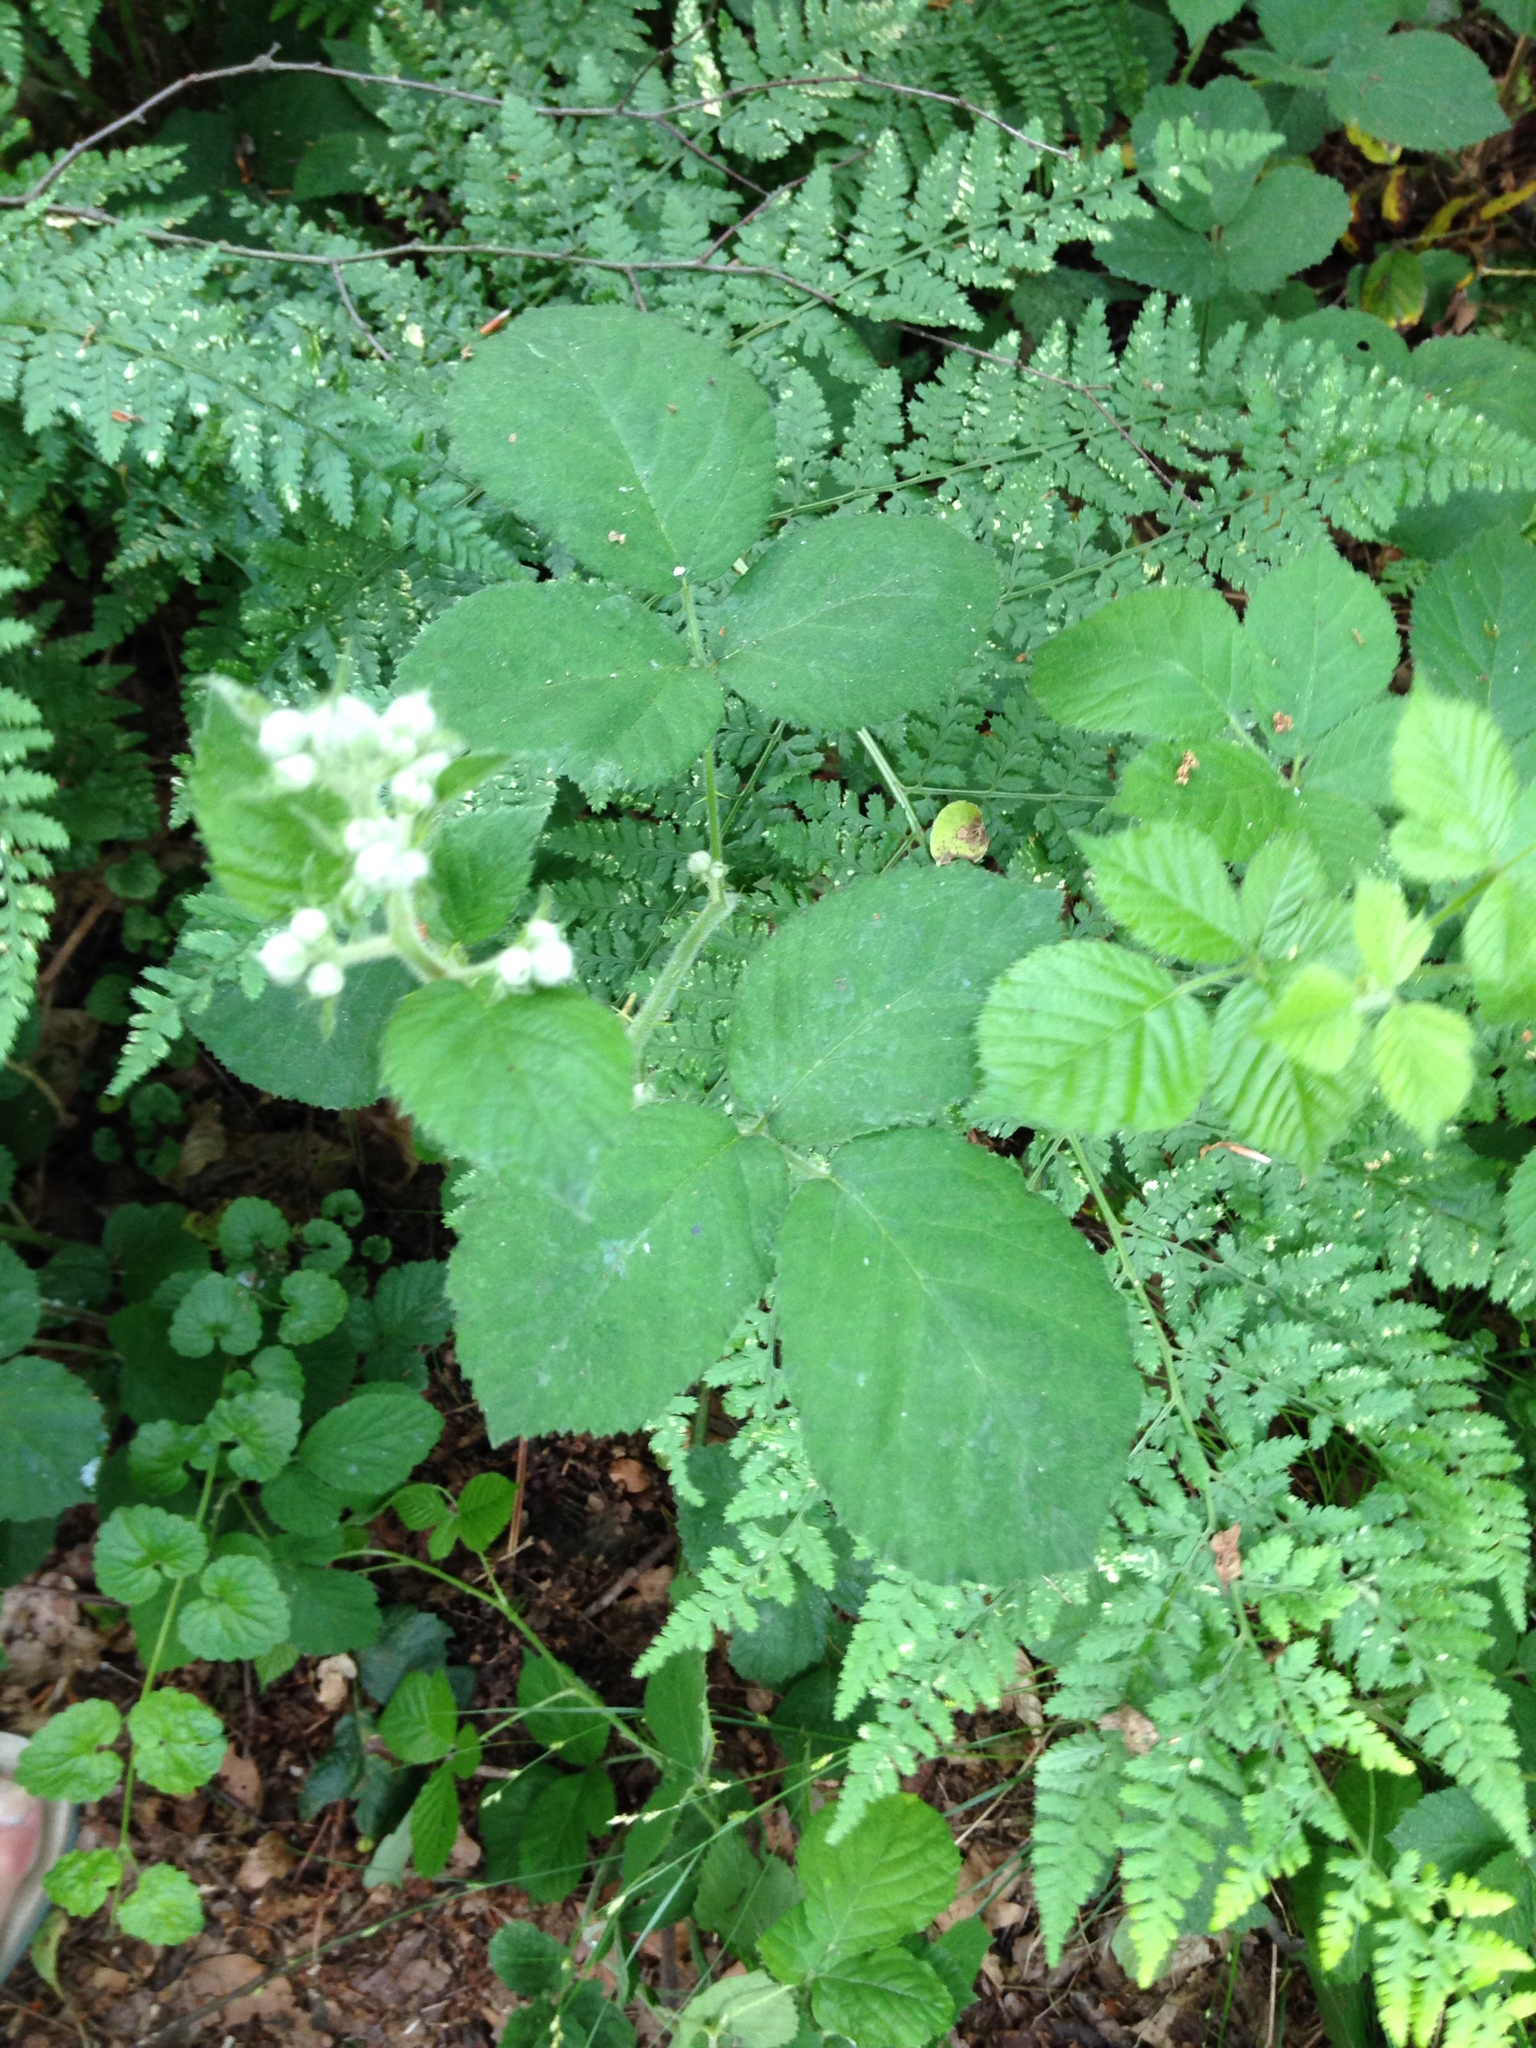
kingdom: Plantae
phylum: Tracheophyta
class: Magnoliopsida
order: Rosales
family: Rosaceae
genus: Rubus
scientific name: Rubus
